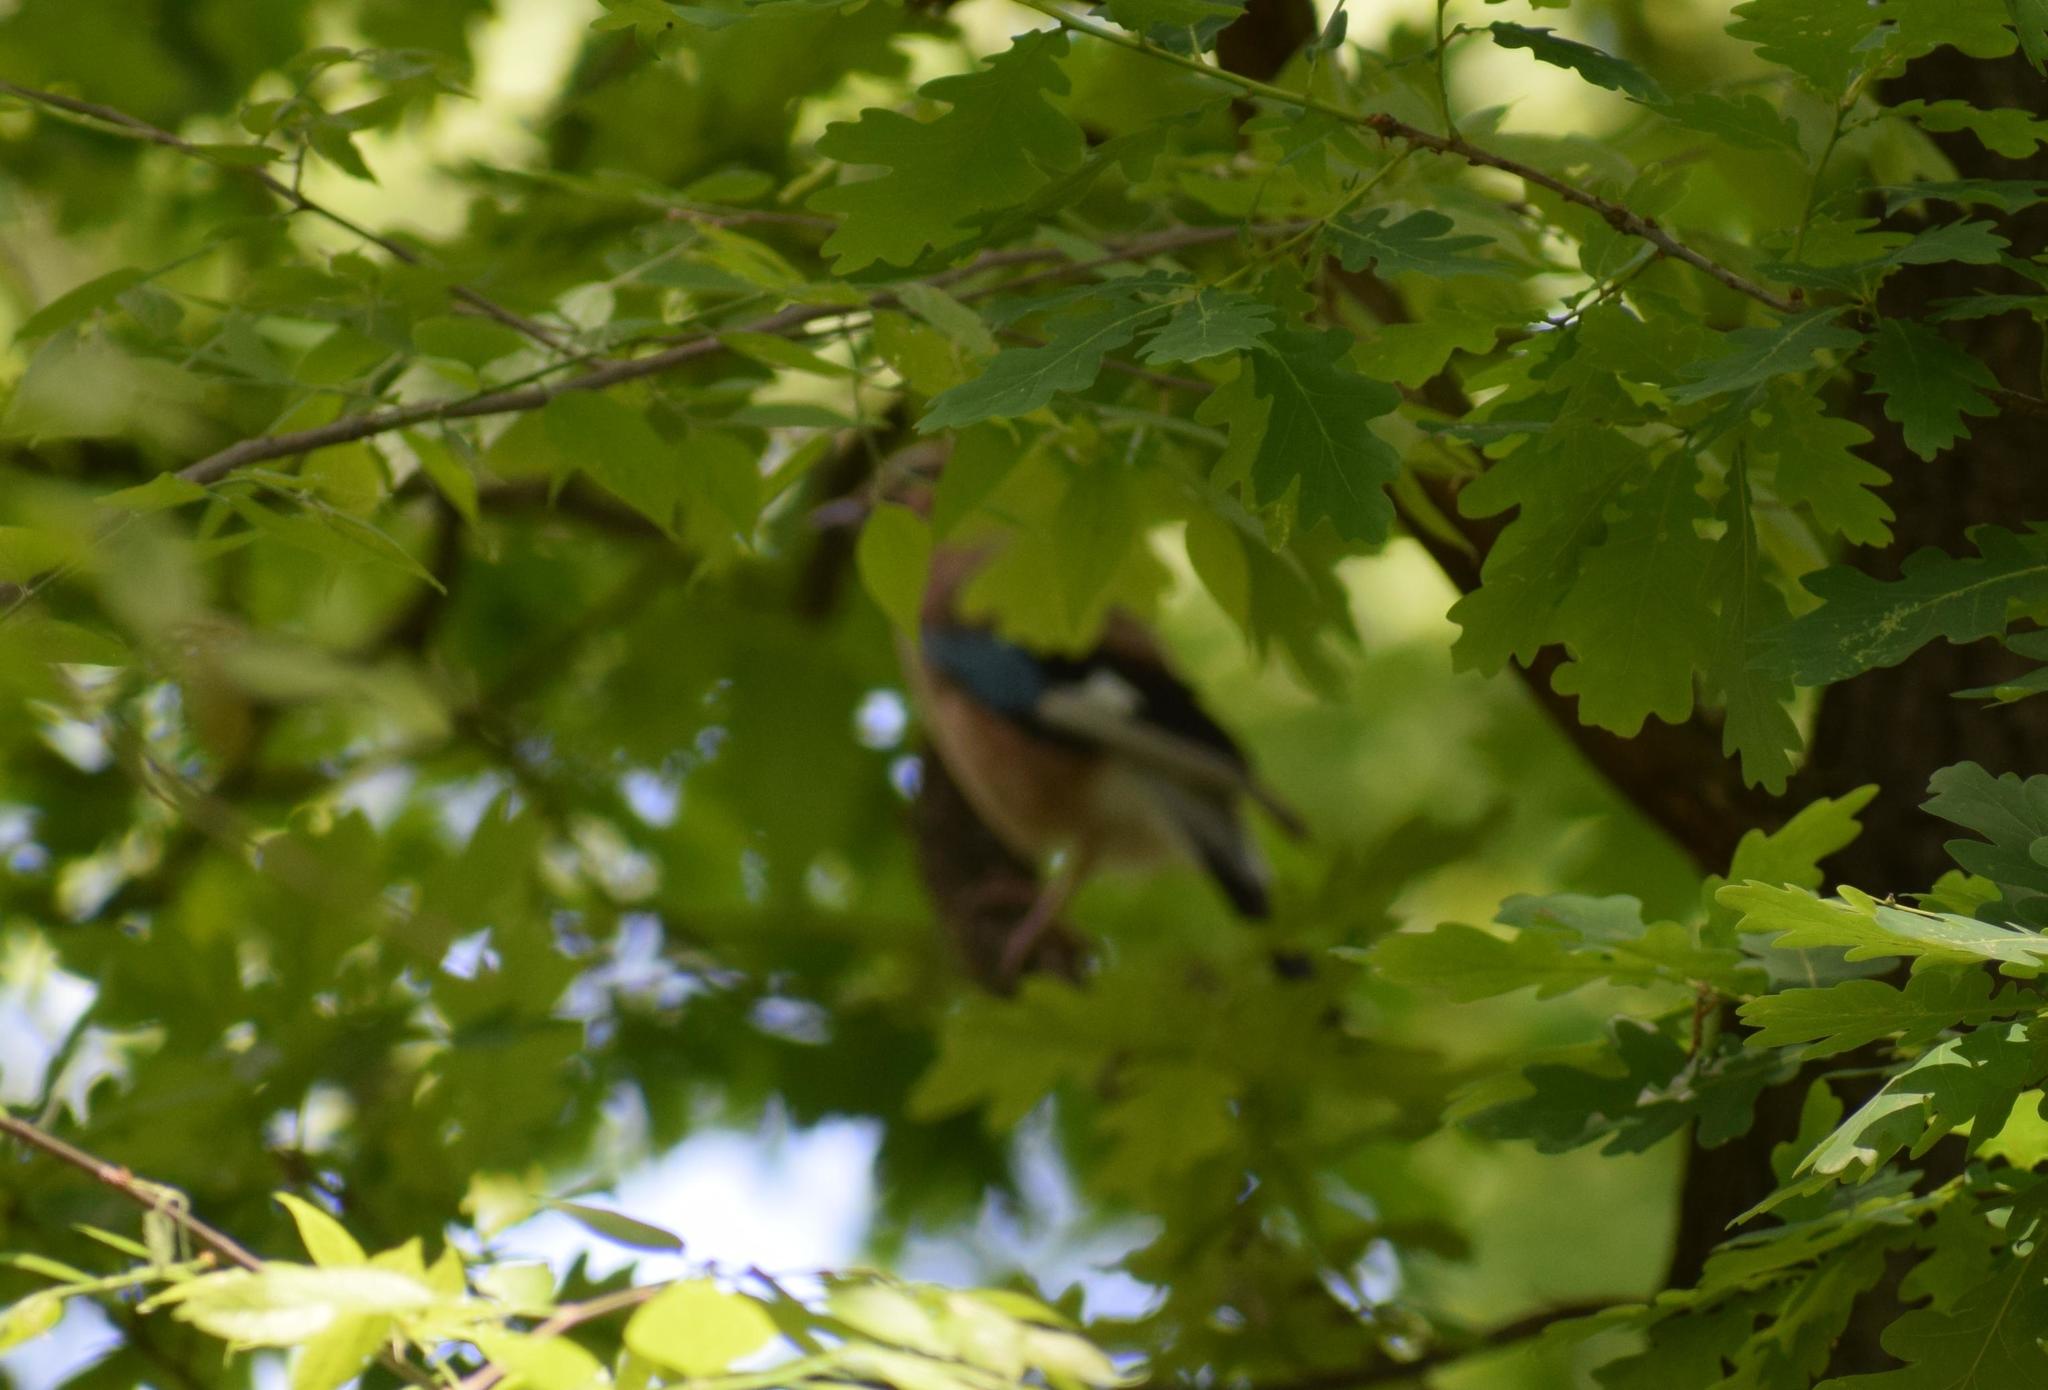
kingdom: Animalia
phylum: Chordata
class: Aves
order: Passeriformes
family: Corvidae
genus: Garrulus
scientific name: Garrulus glandarius
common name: Eurasian jay
